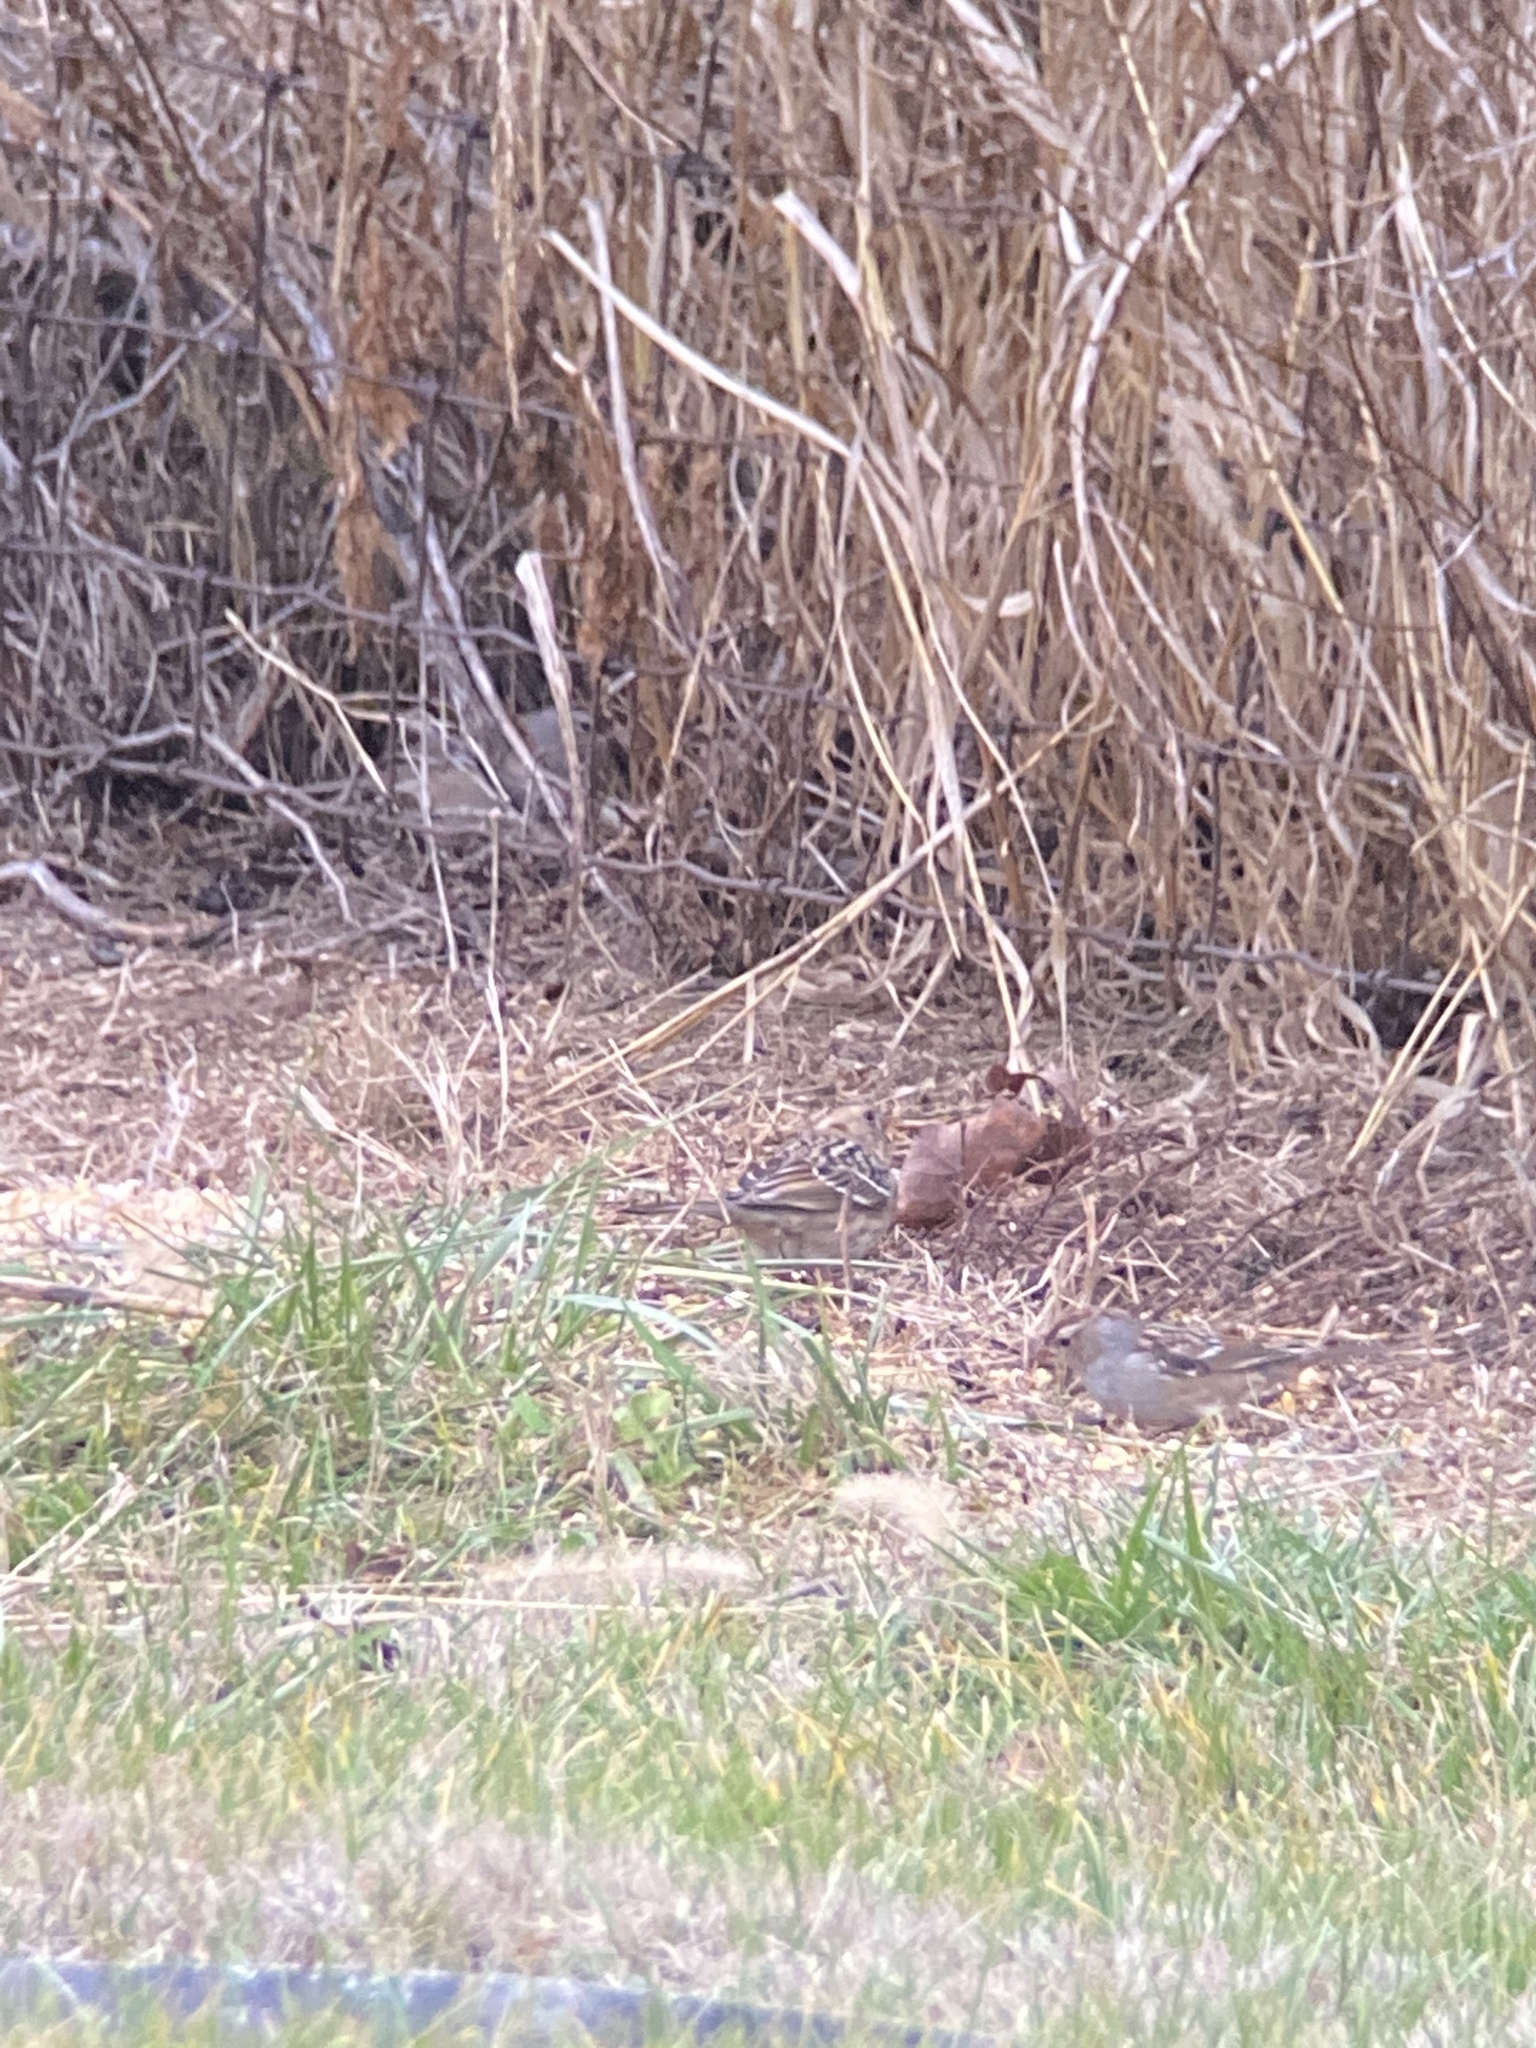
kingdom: Animalia
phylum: Chordata
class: Aves
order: Passeriformes
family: Passerellidae
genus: Zonotrichia
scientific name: Zonotrichia leucophrys
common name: White-crowned sparrow
